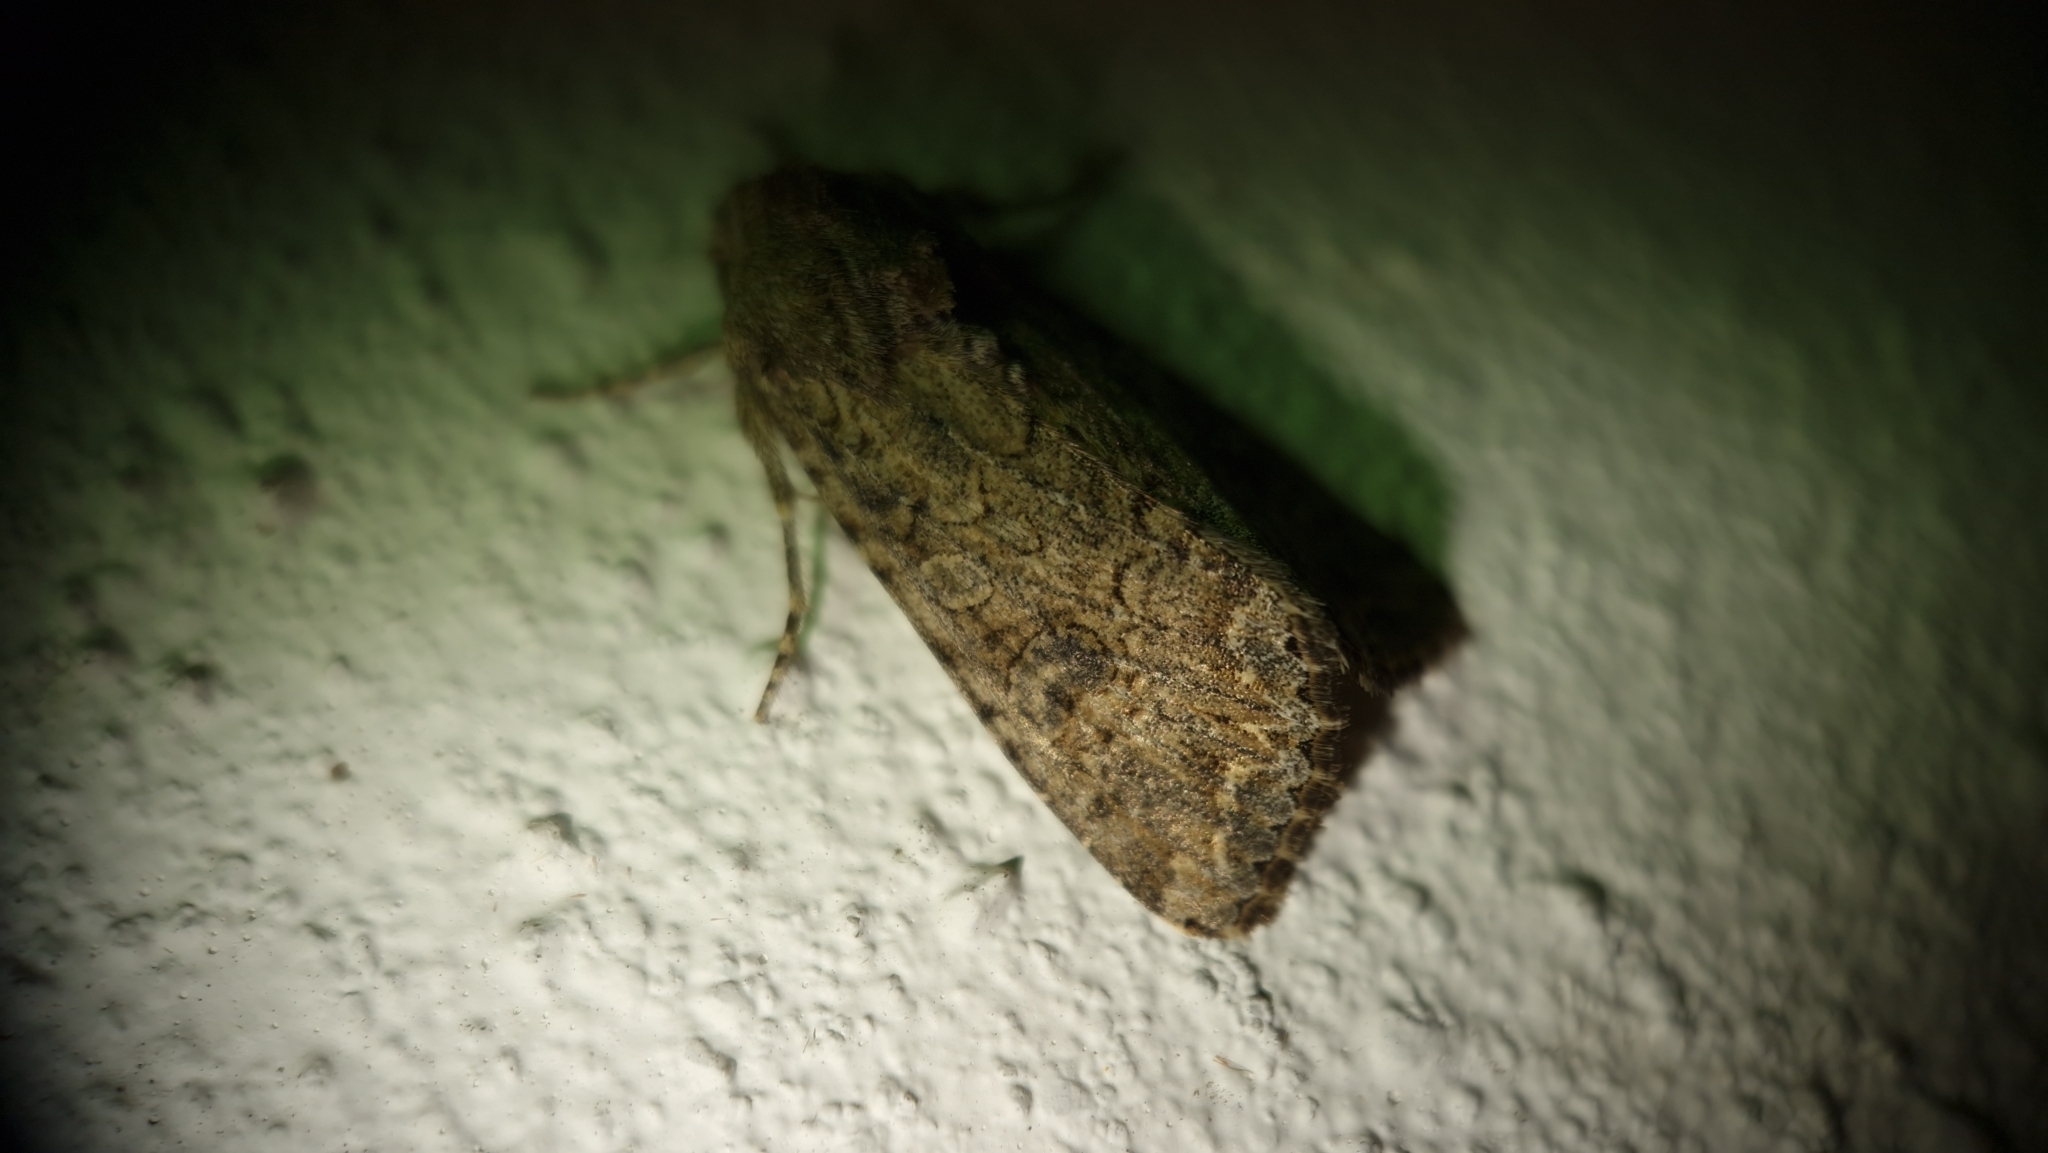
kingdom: Animalia
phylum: Arthropoda
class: Insecta
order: Lepidoptera
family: Noctuidae
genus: Anarta
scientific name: Anarta trifolii
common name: Clover cutworm moth
